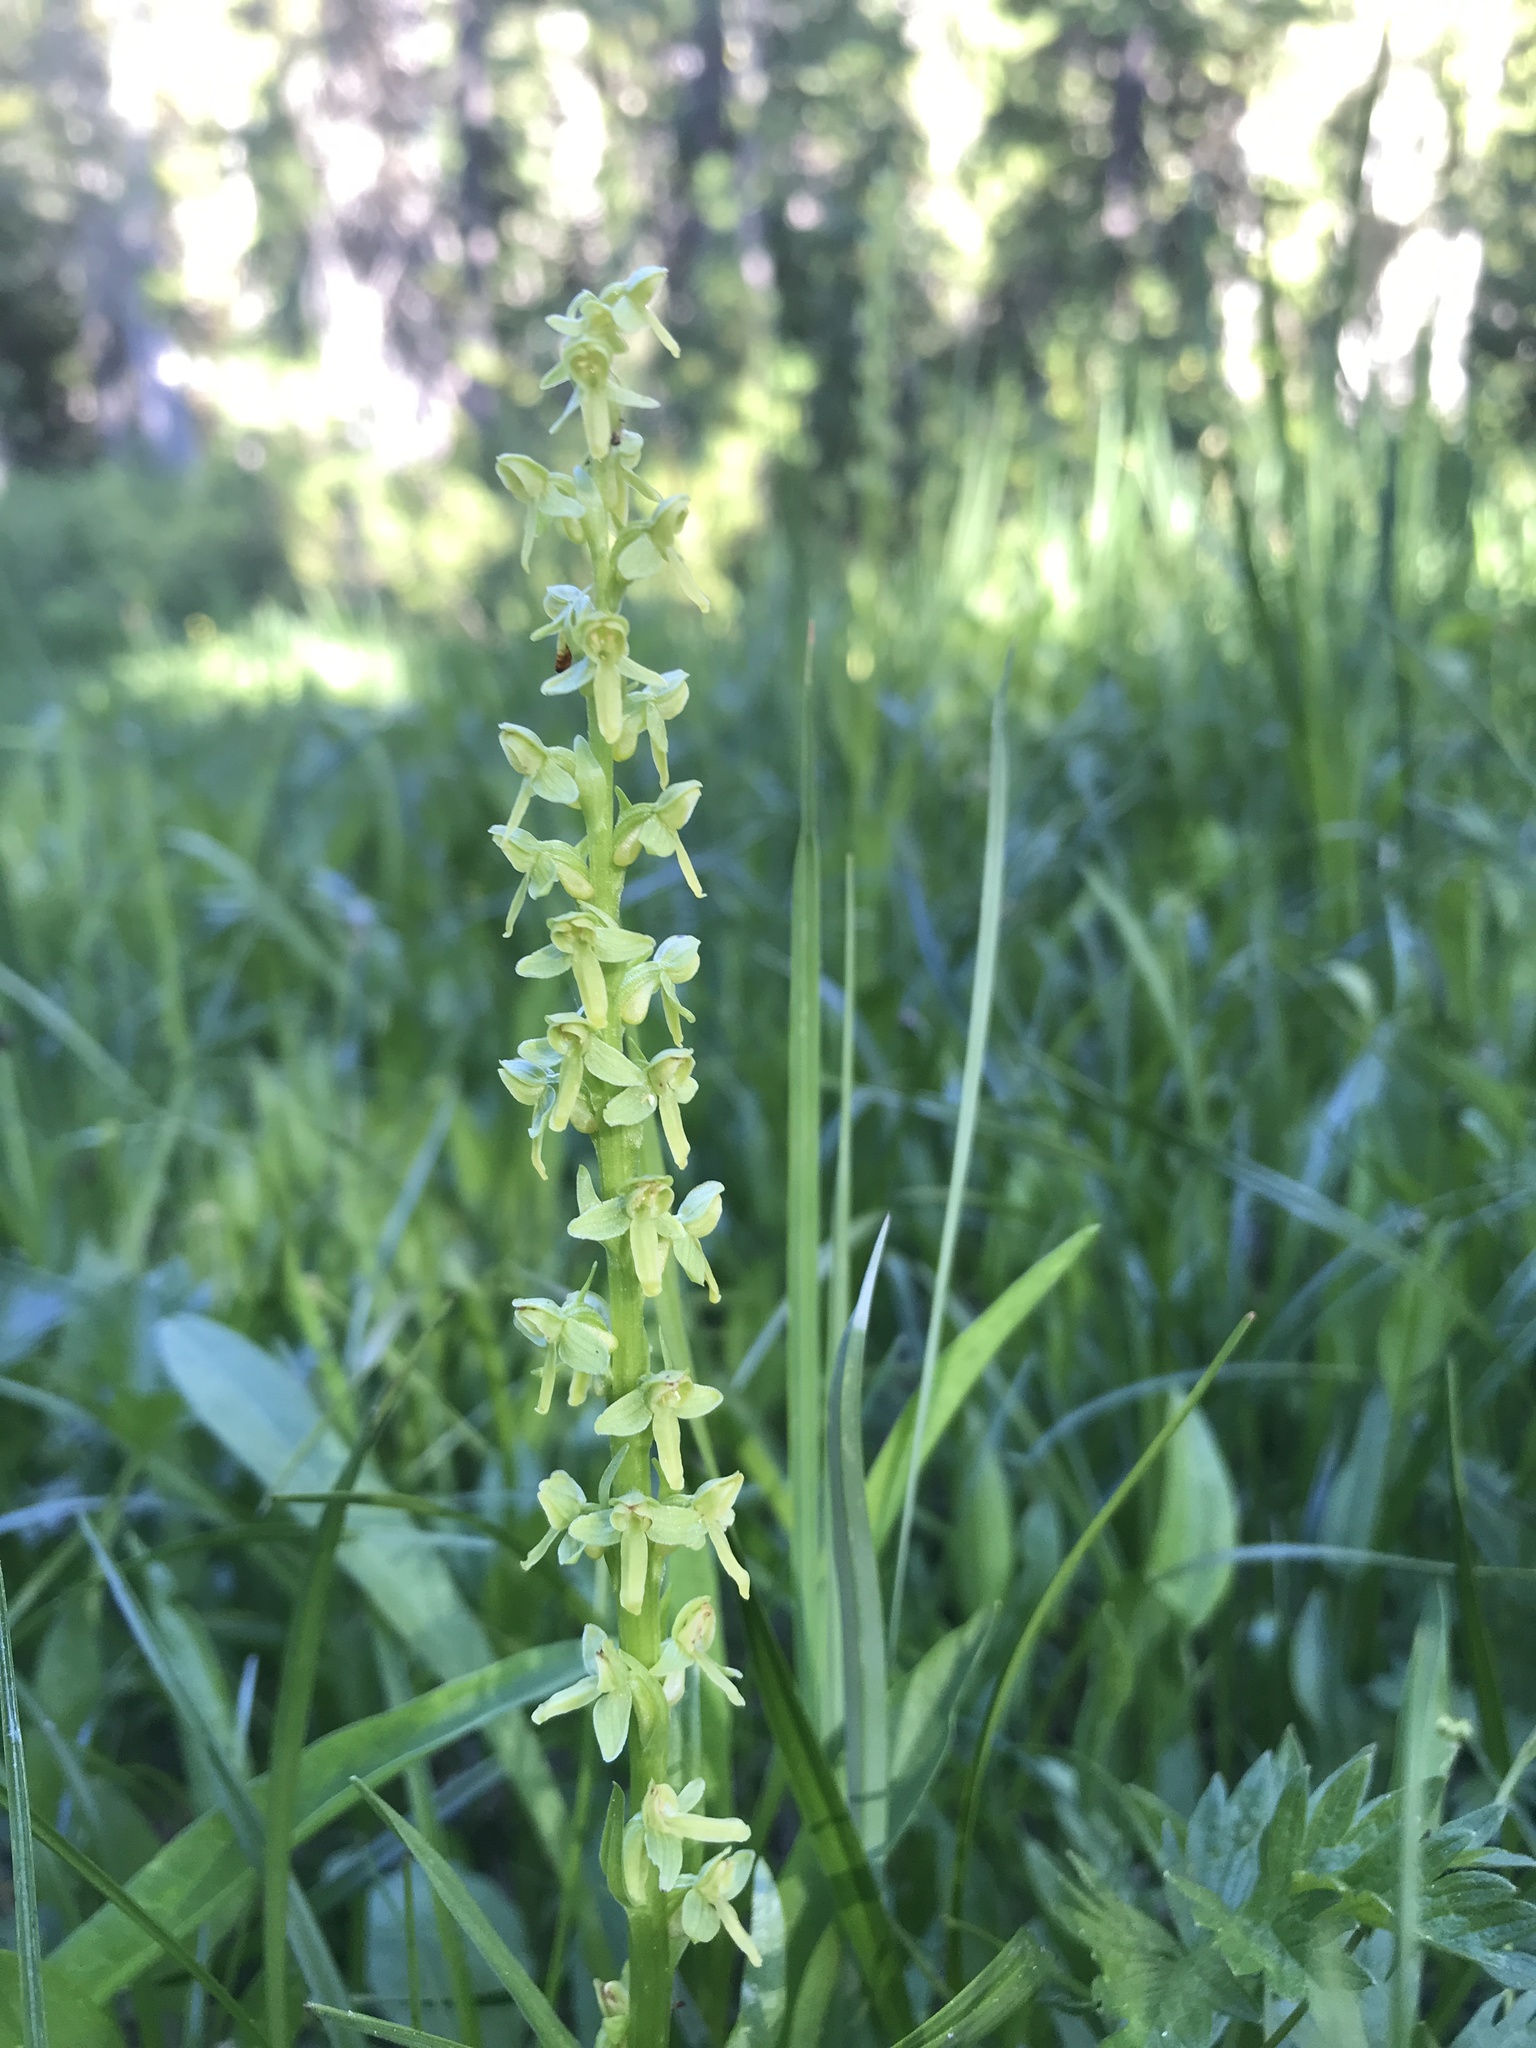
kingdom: Plantae
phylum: Tracheophyta
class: Liliopsida
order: Asparagales
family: Orchidaceae
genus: Platanthera
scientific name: Platanthera stricta
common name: Slender bog orchid
